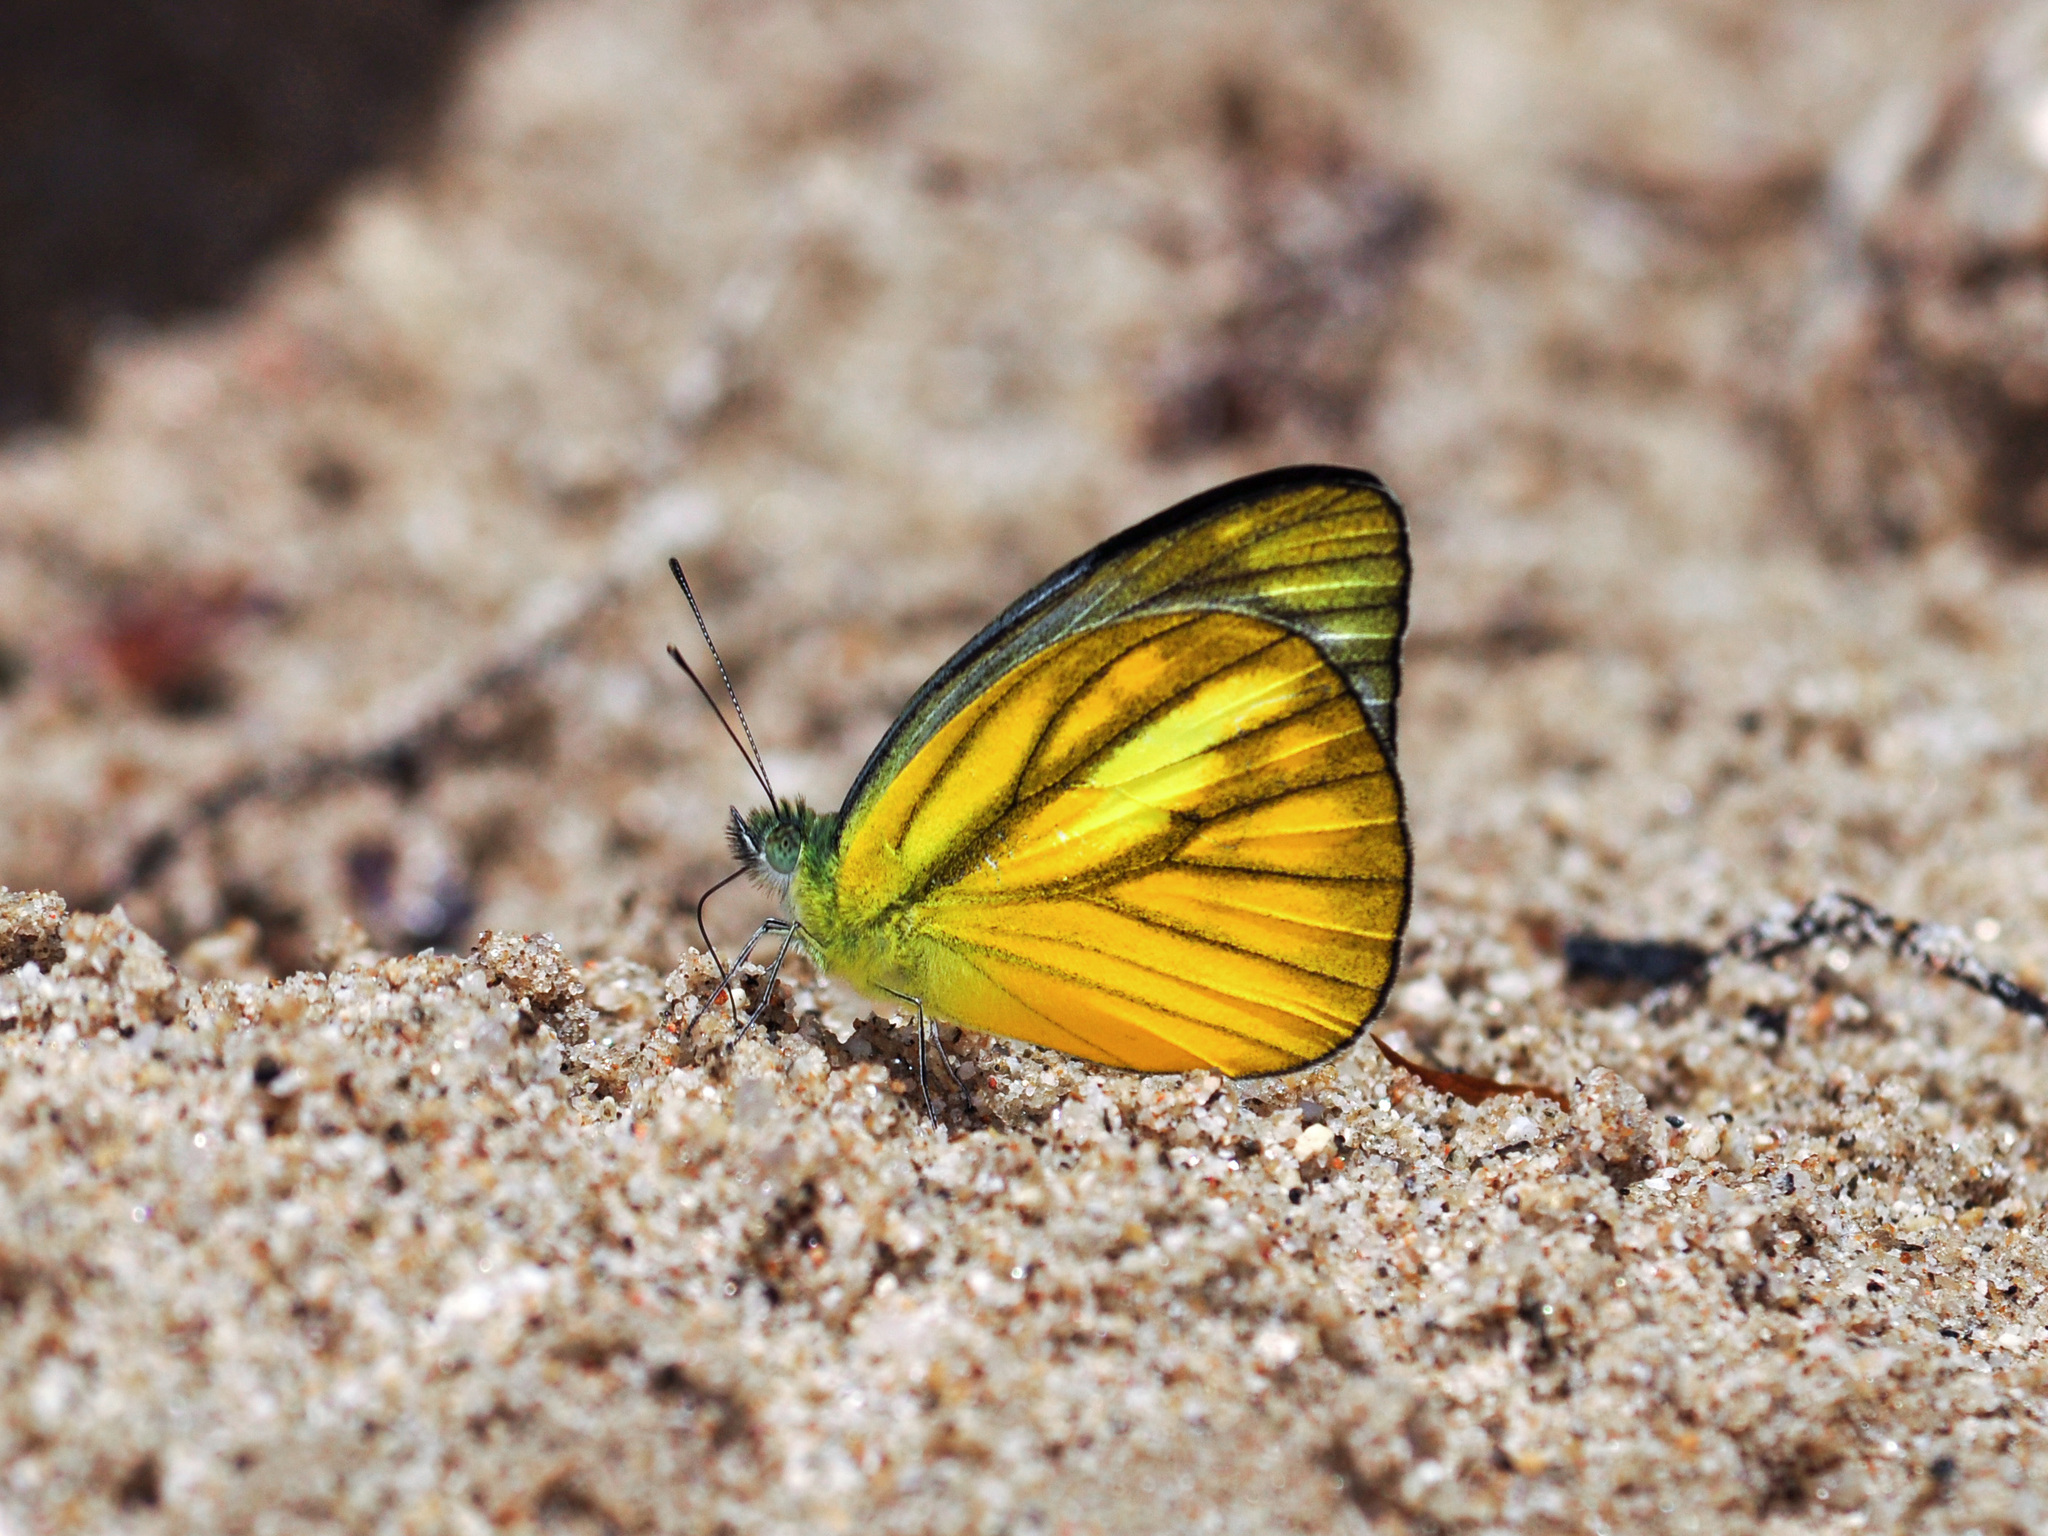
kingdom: Animalia
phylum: Arthropoda
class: Insecta
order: Lepidoptera
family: Pieridae
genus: Cepora
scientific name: Cepora nadina
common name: Lesser gull
